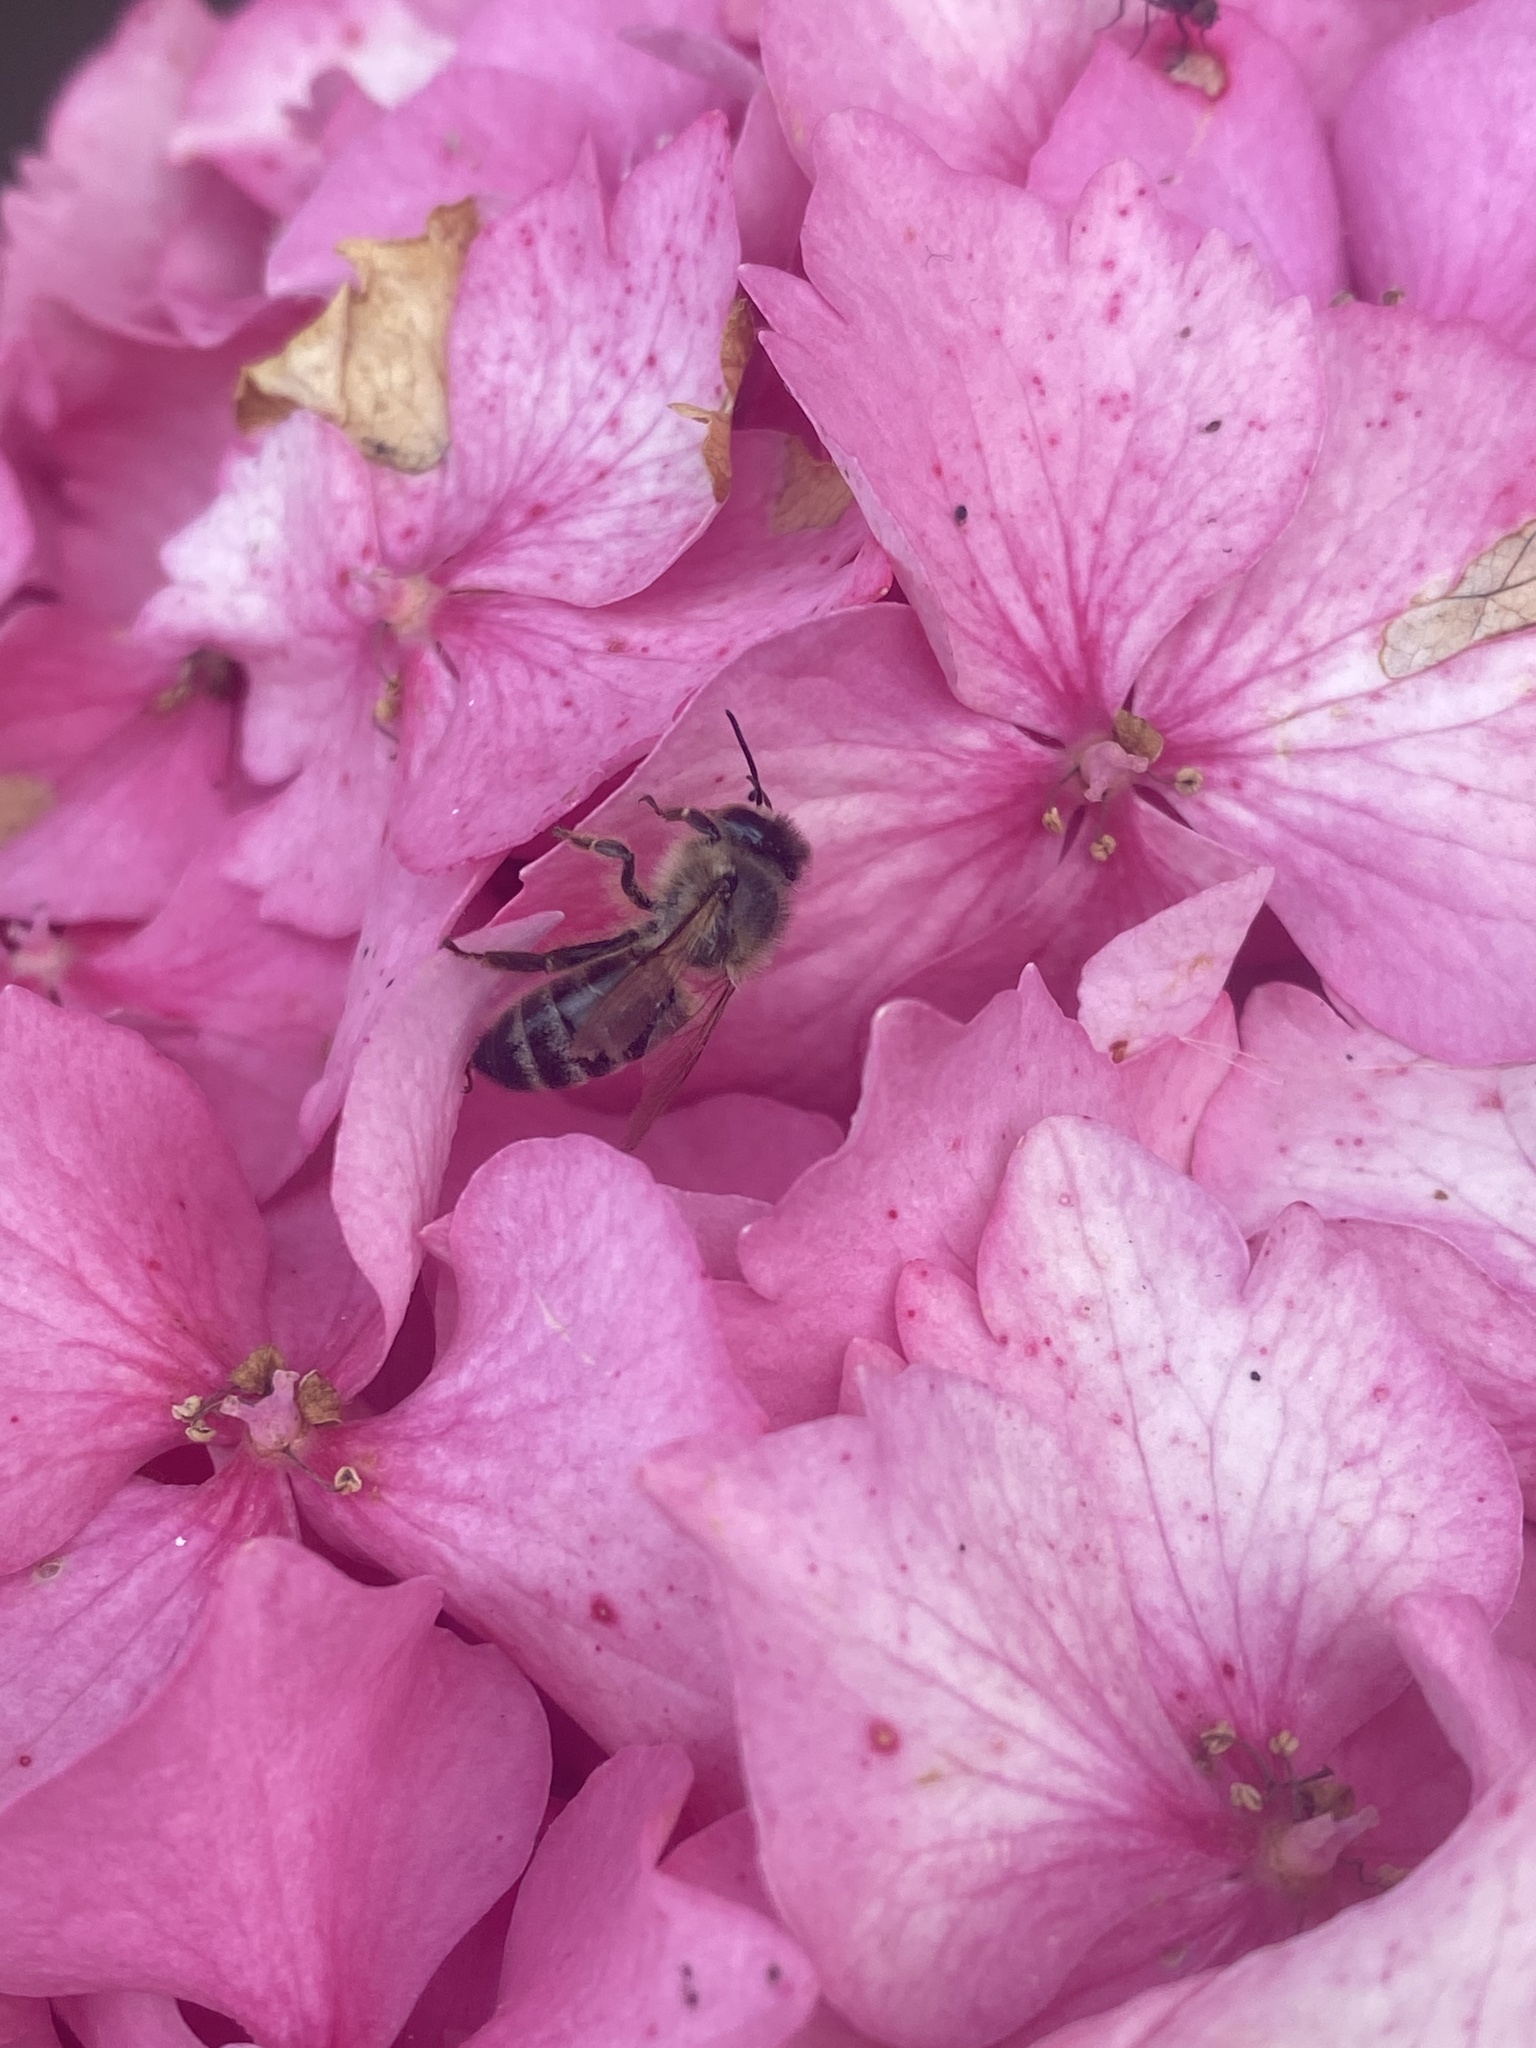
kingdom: Animalia
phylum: Arthropoda
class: Insecta
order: Hymenoptera
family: Apidae
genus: Apis
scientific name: Apis mellifera
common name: Honey bee
